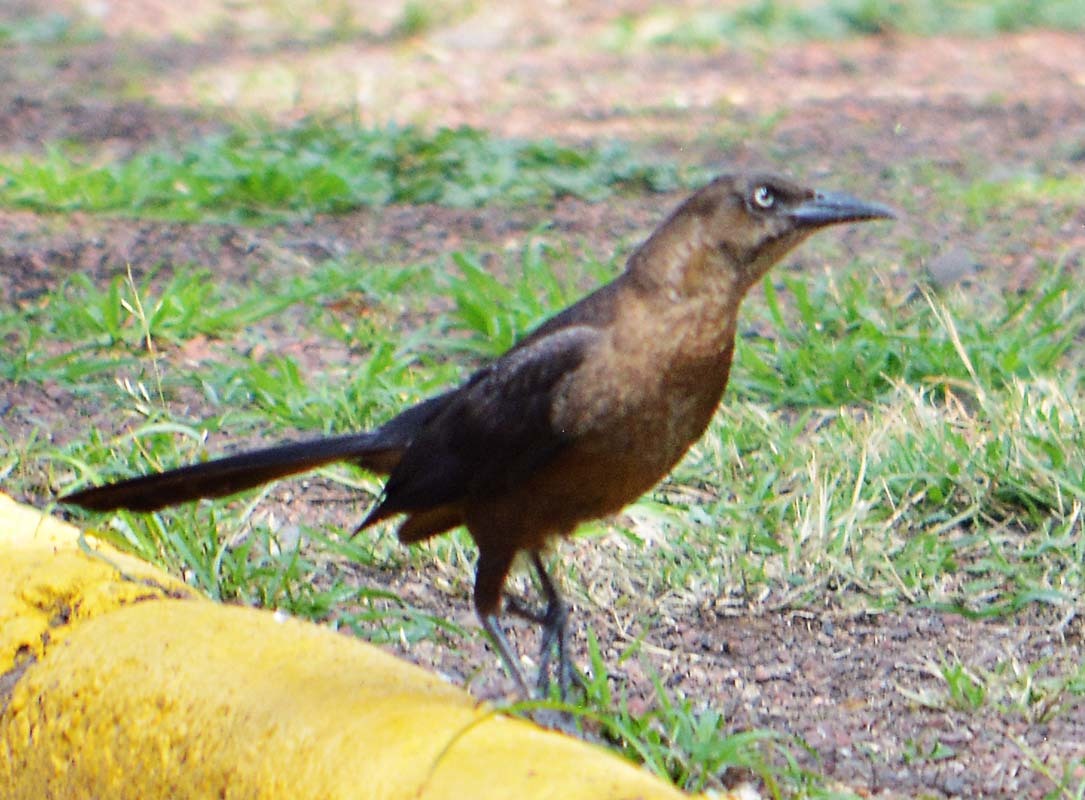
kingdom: Animalia
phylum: Chordata
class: Aves
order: Passeriformes
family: Icteridae
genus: Quiscalus
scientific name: Quiscalus mexicanus
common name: Great-tailed grackle
